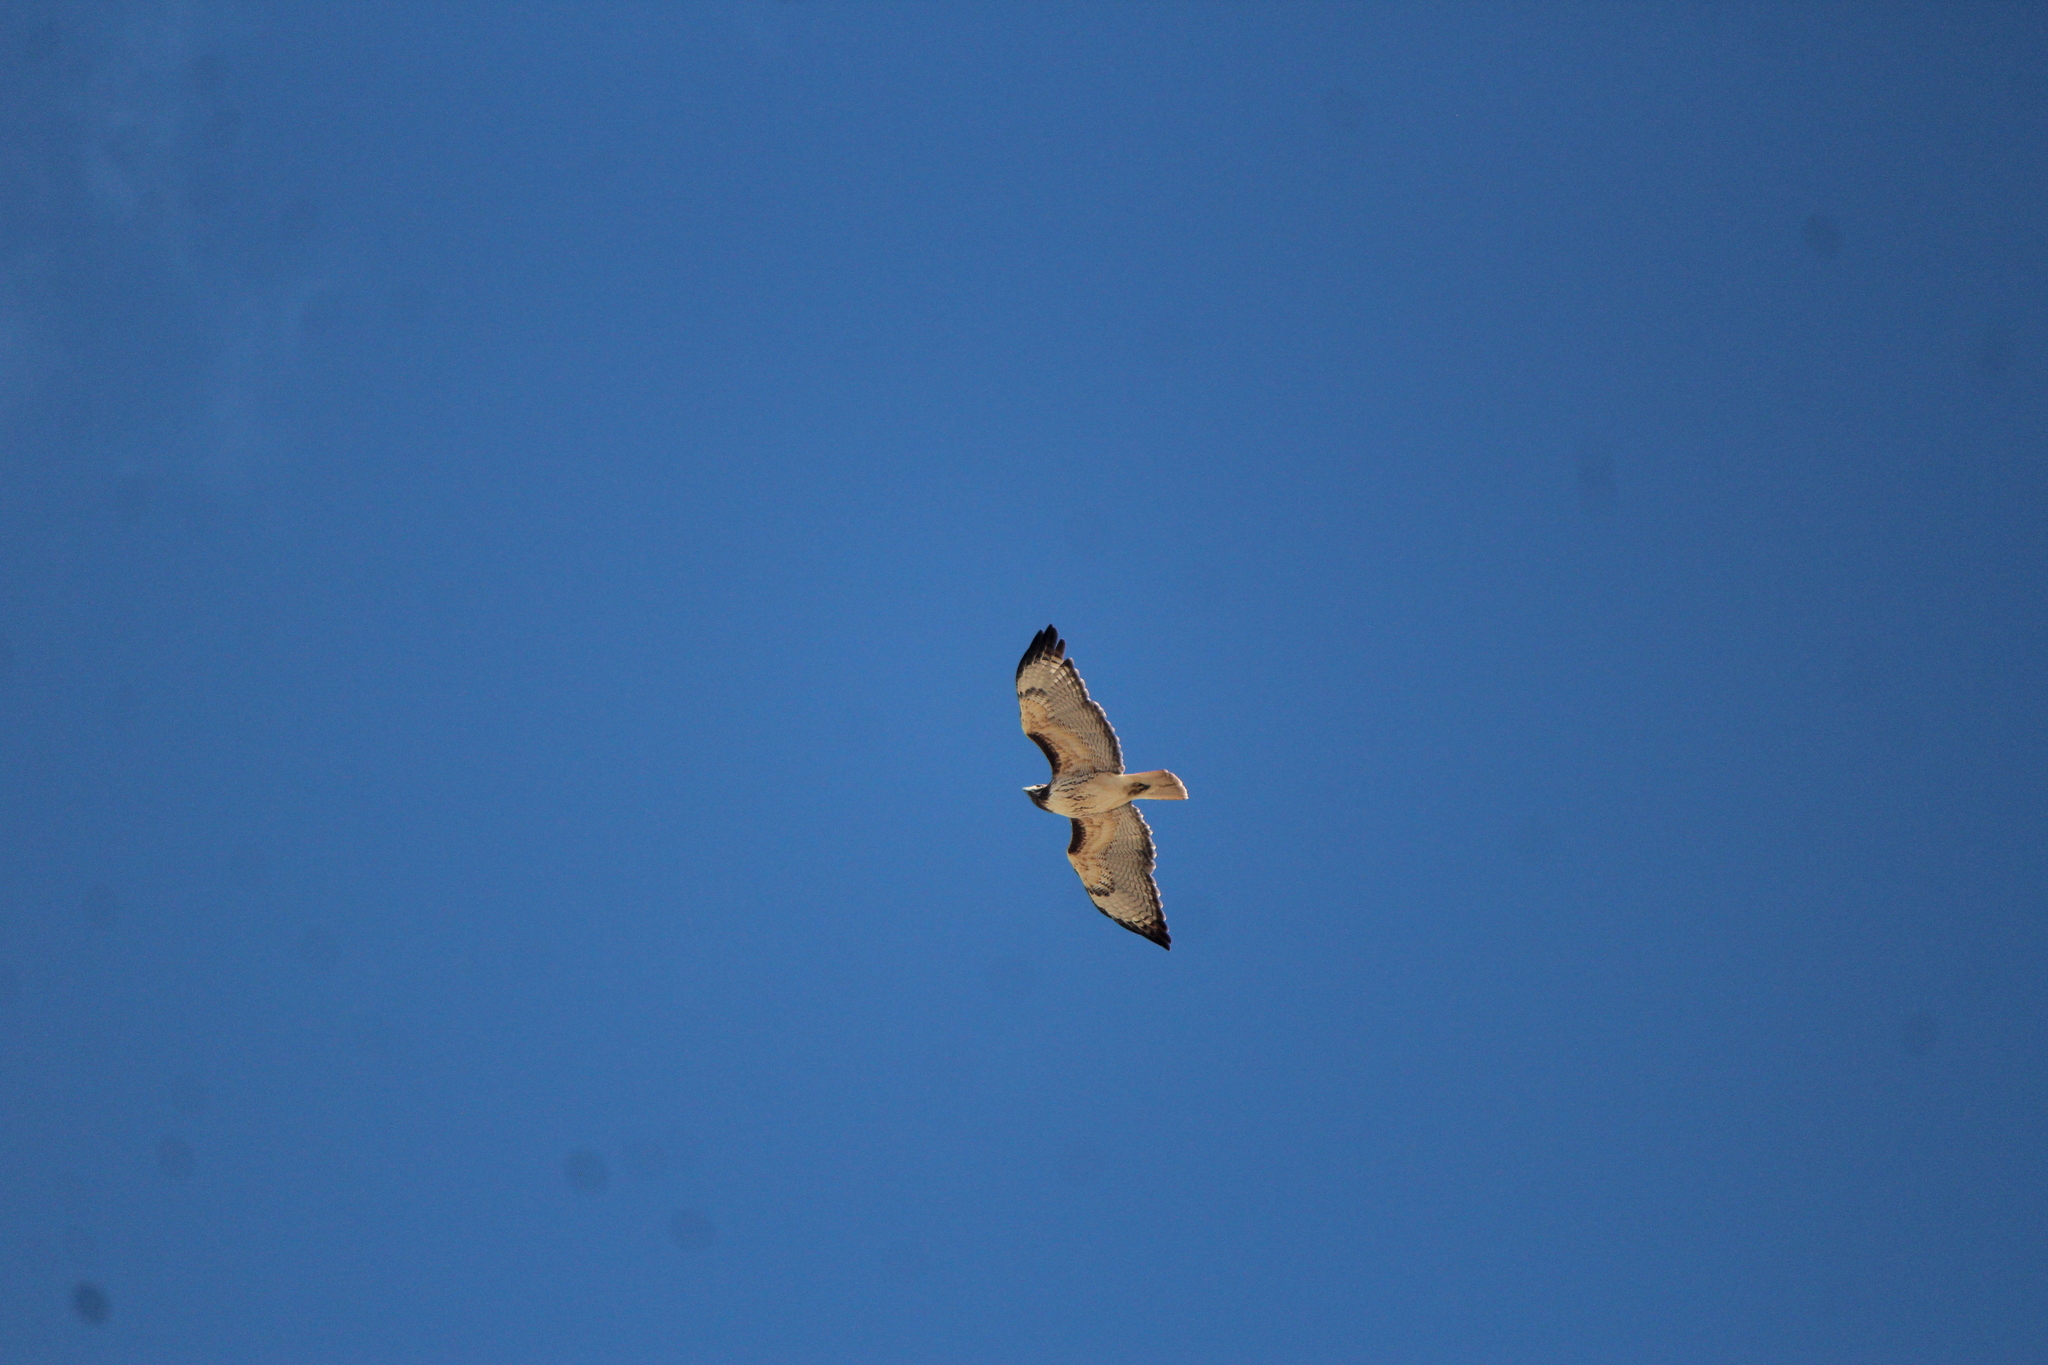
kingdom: Animalia
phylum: Chordata
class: Aves
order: Accipitriformes
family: Accipitridae
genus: Buteo
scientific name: Buteo jamaicensis
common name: Red-tailed hawk
